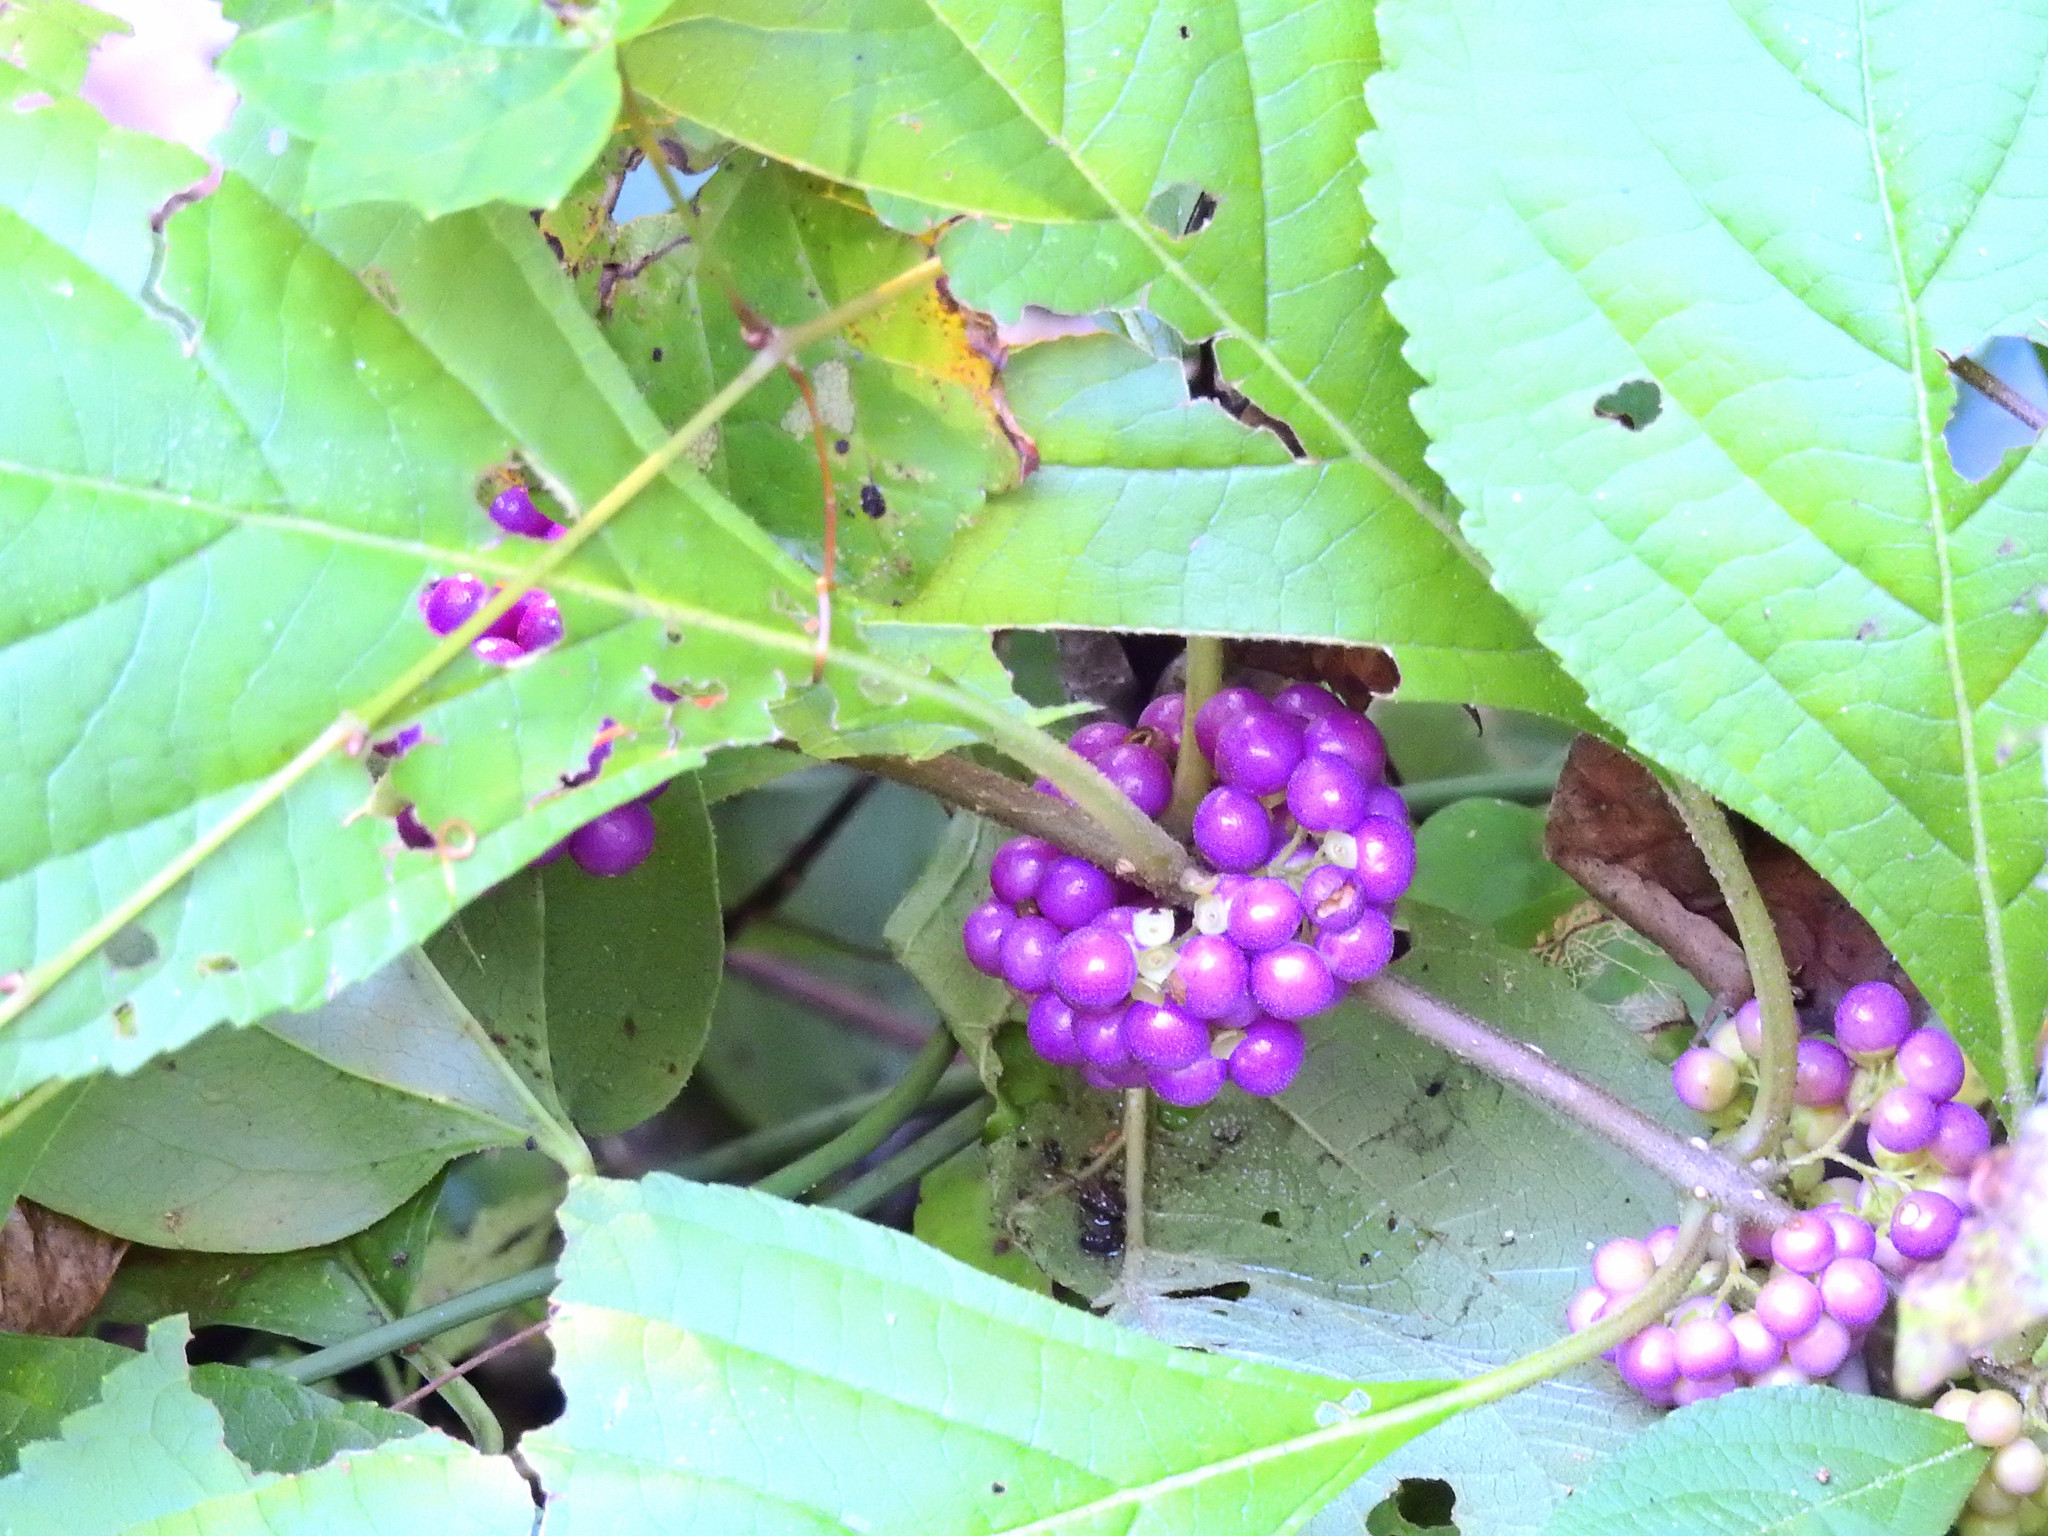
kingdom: Plantae
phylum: Tracheophyta
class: Magnoliopsida
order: Lamiales
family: Lamiaceae
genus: Callicarpa
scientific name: Callicarpa americana
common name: American beautyberry
